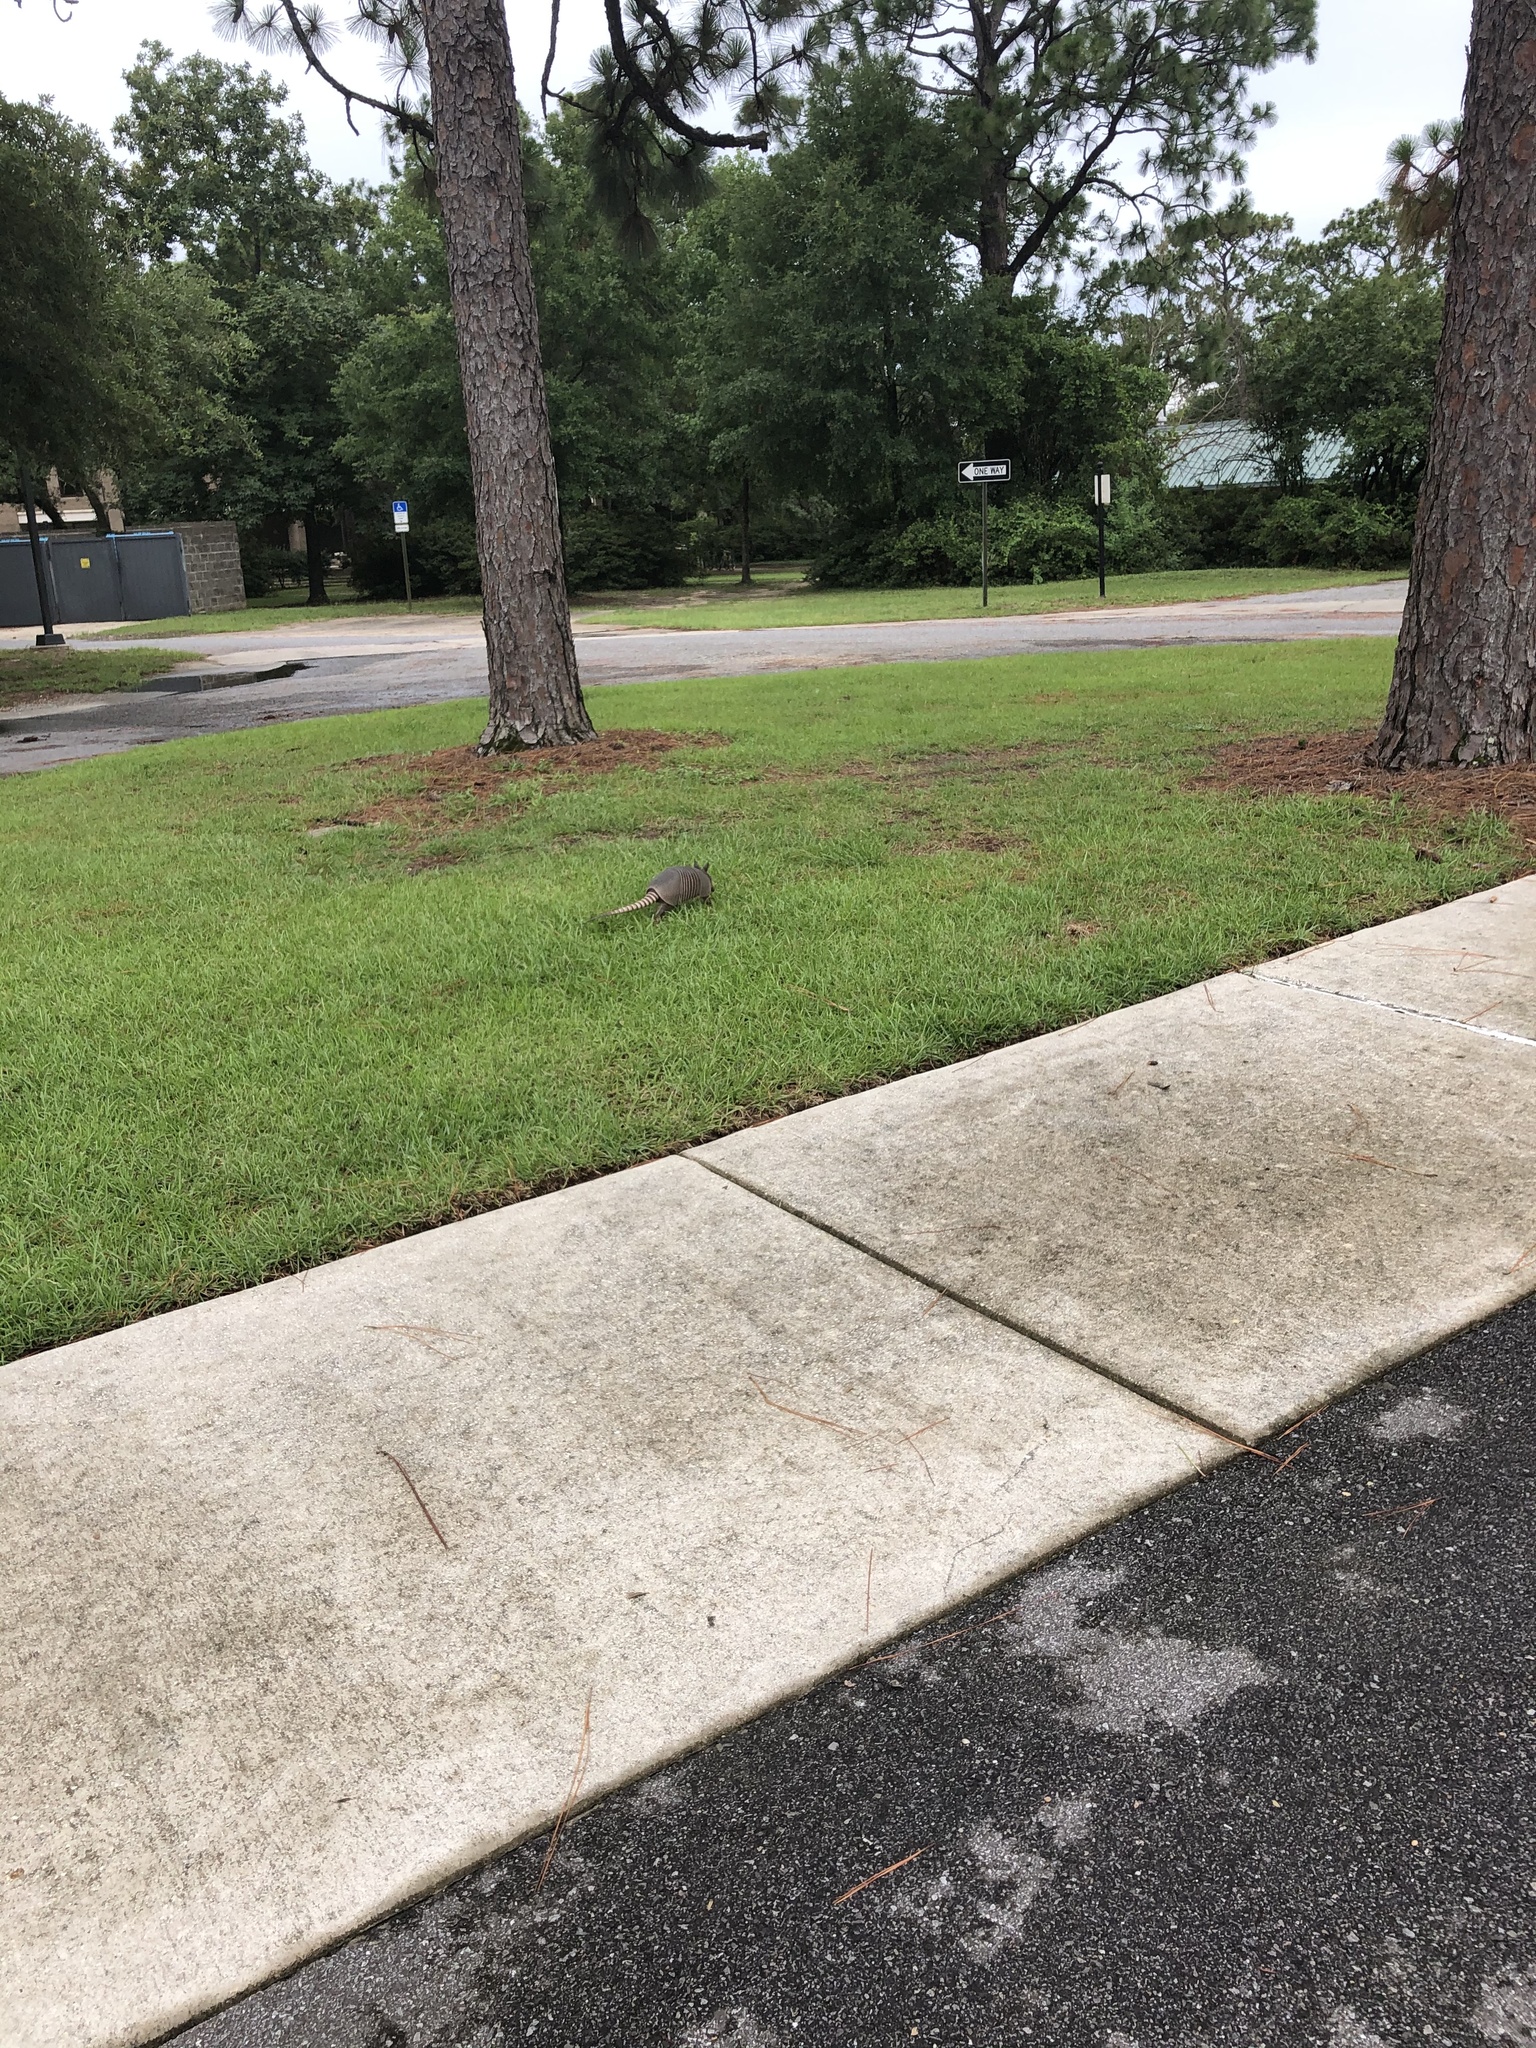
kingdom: Animalia
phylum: Chordata
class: Mammalia
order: Cingulata
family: Dasypodidae
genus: Dasypus
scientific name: Dasypus novemcinctus
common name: Nine-banded armadillo
